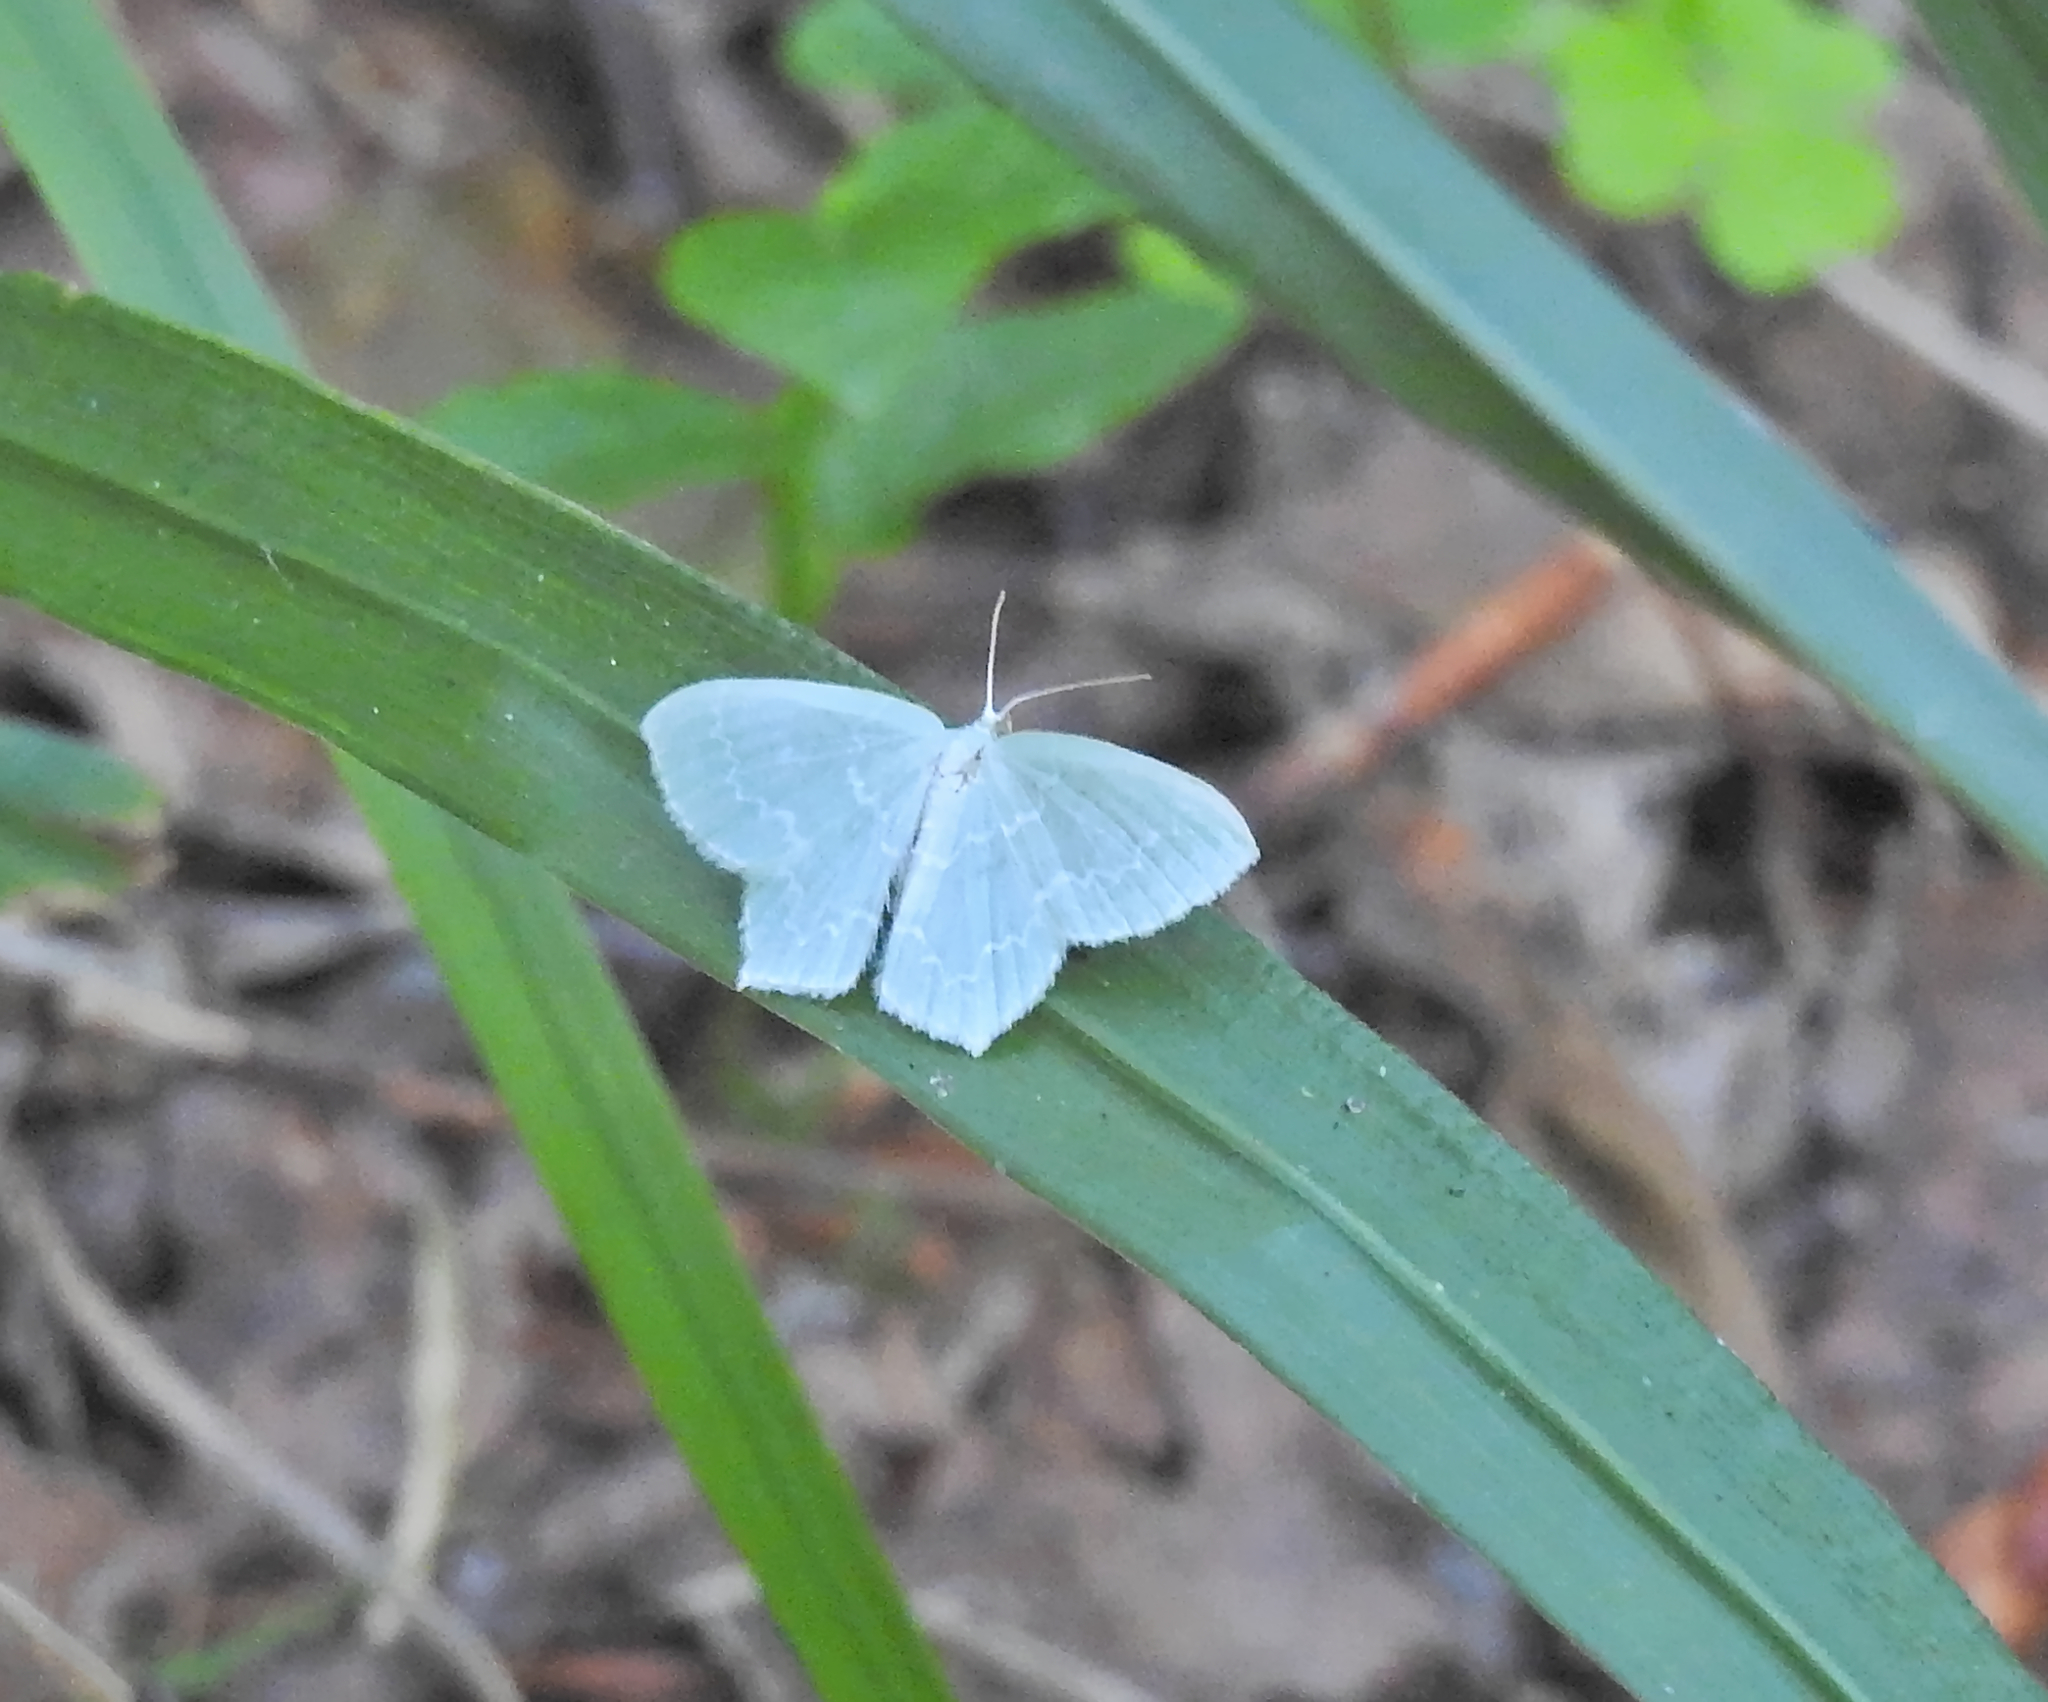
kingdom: Animalia
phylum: Arthropoda
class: Insecta
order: Lepidoptera
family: Geometridae
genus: Jodis
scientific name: Jodis putata
